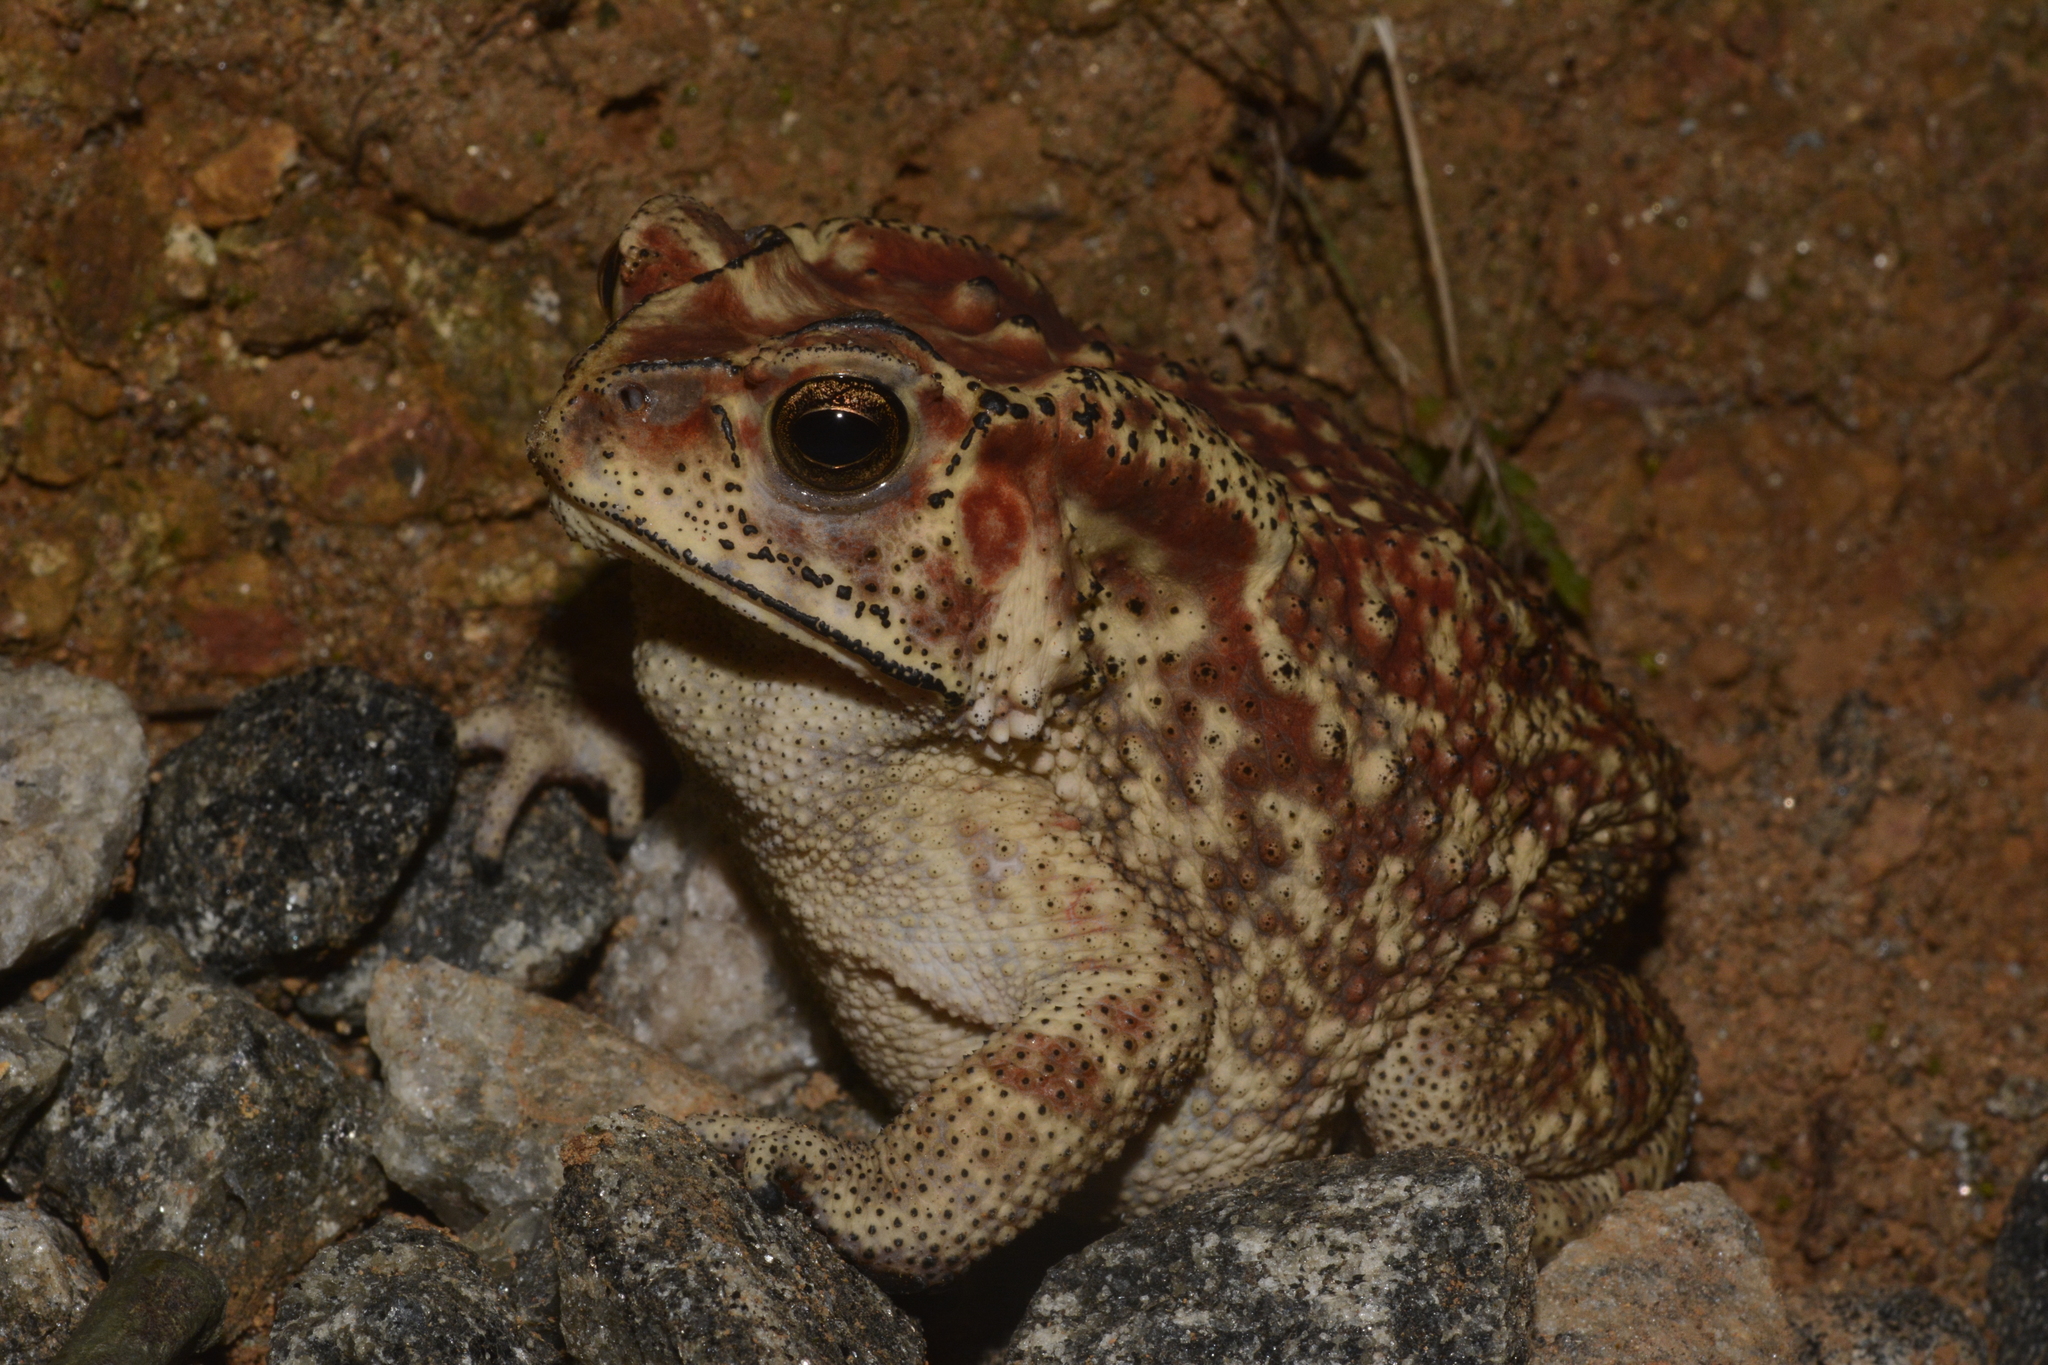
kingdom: Animalia
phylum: Chordata
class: Amphibia
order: Anura
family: Bufonidae
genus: Duttaphrynus
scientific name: Duttaphrynus melanostictus
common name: Common sunda toad
